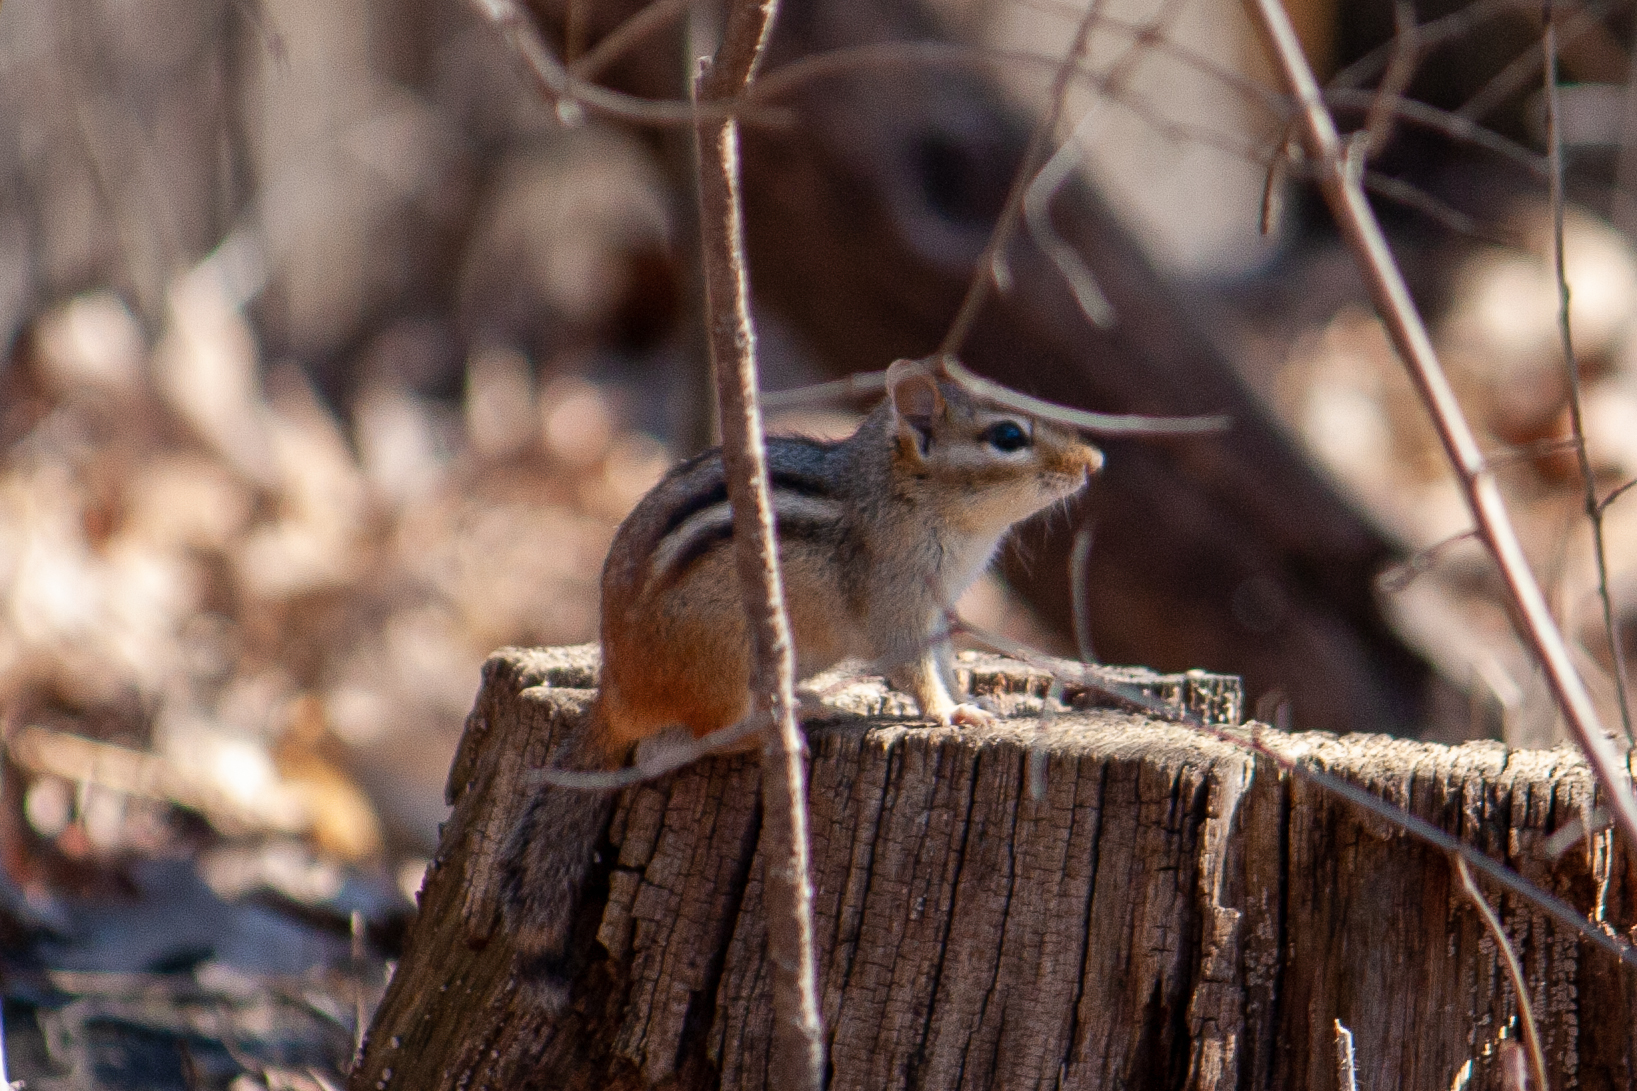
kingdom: Animalia
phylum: Chordata
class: Mammalia
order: Rodentia
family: Sciuridae
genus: Tamias
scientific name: Tamias striatus
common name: Eastern chipmunk
